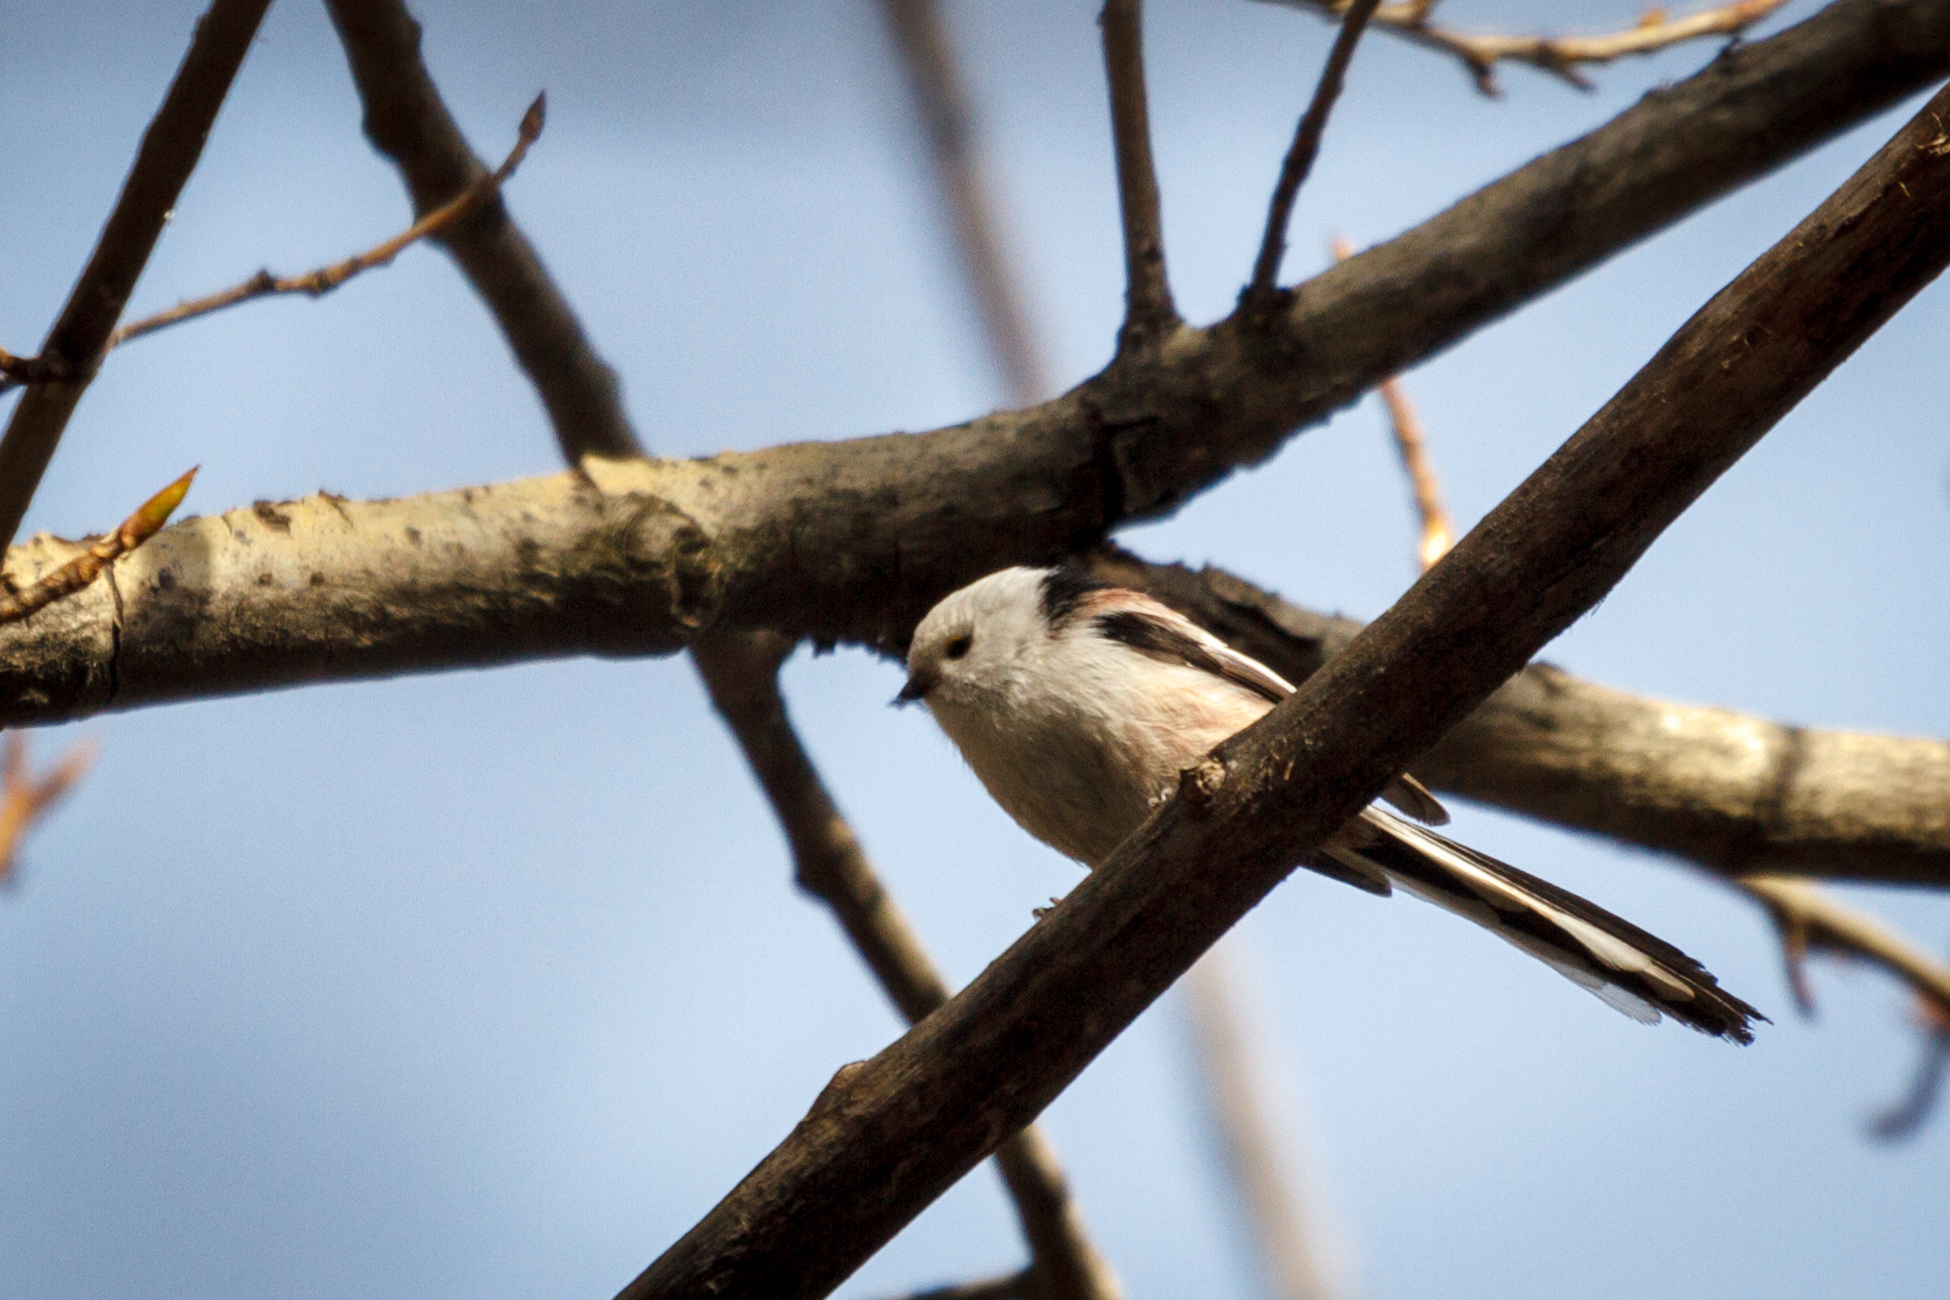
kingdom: Animalia
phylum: Chordata
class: Aves
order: Passeriformes
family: Aegithalidae
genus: Aegithalos
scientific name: Aegithalos caudatus
